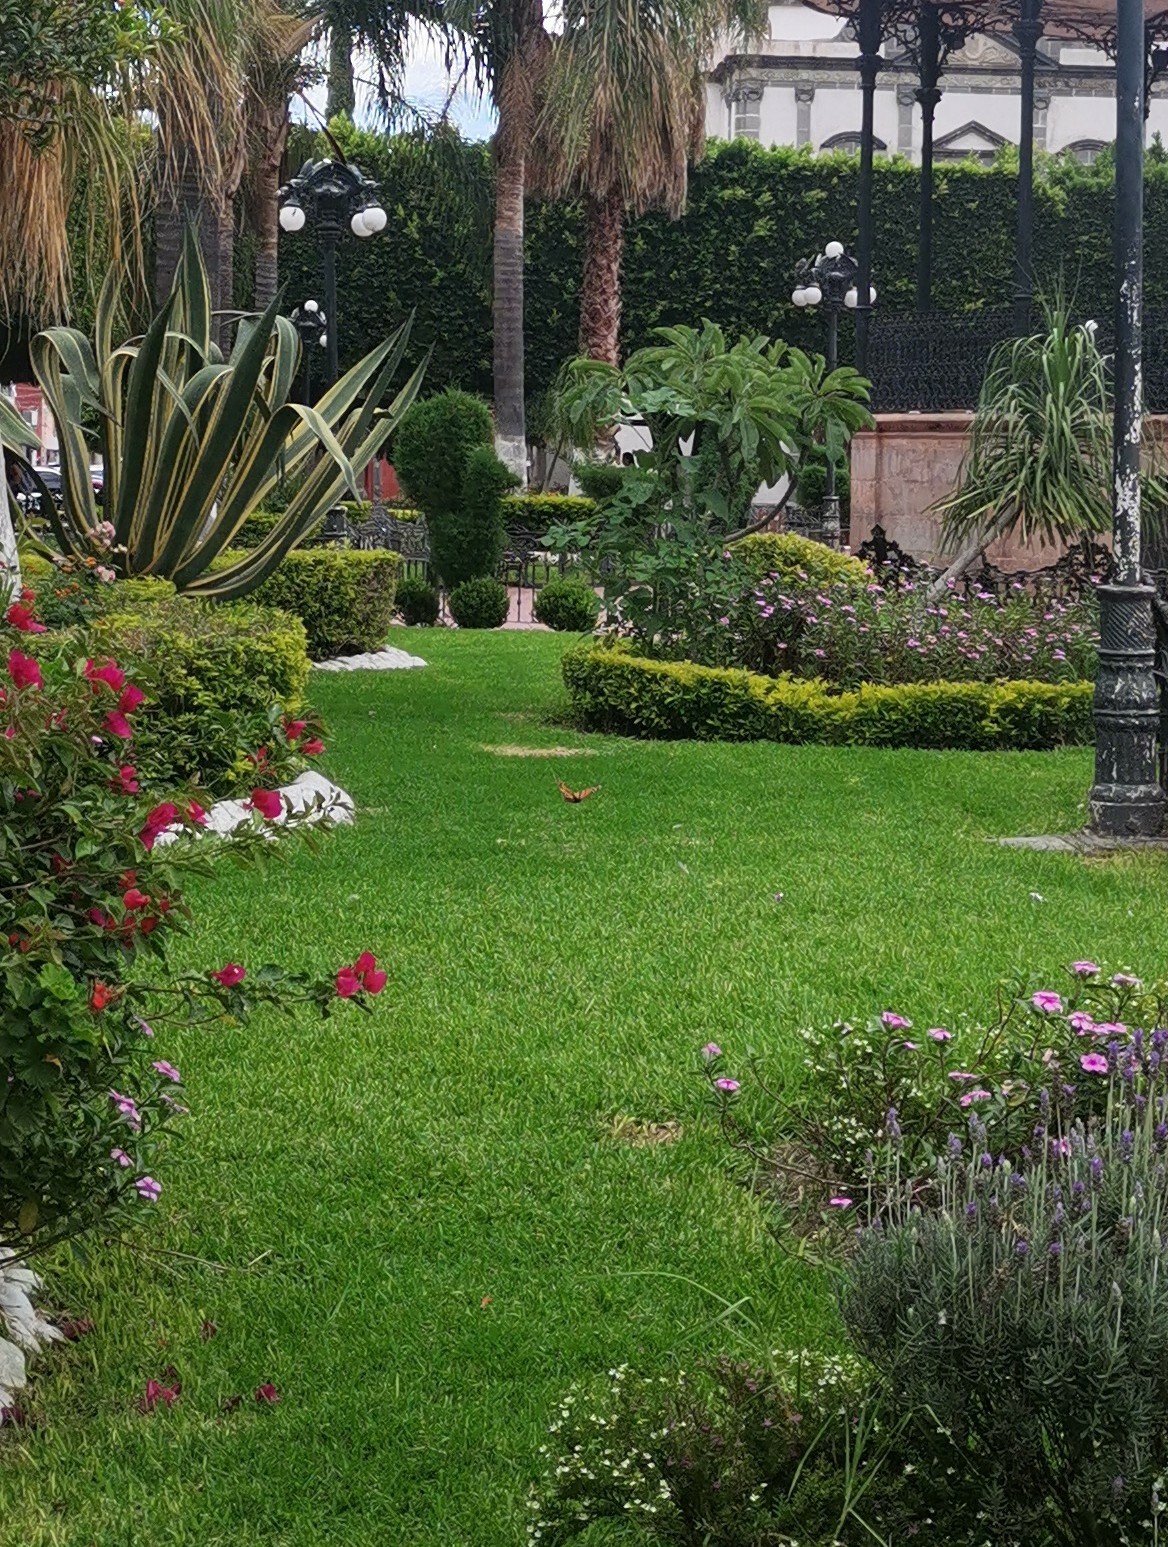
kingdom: Animalia
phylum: Arthropoda
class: Insecta
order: Lepidoptera
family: Nymphalidae
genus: Danaus
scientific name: Danaus plexippus
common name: Monarch
